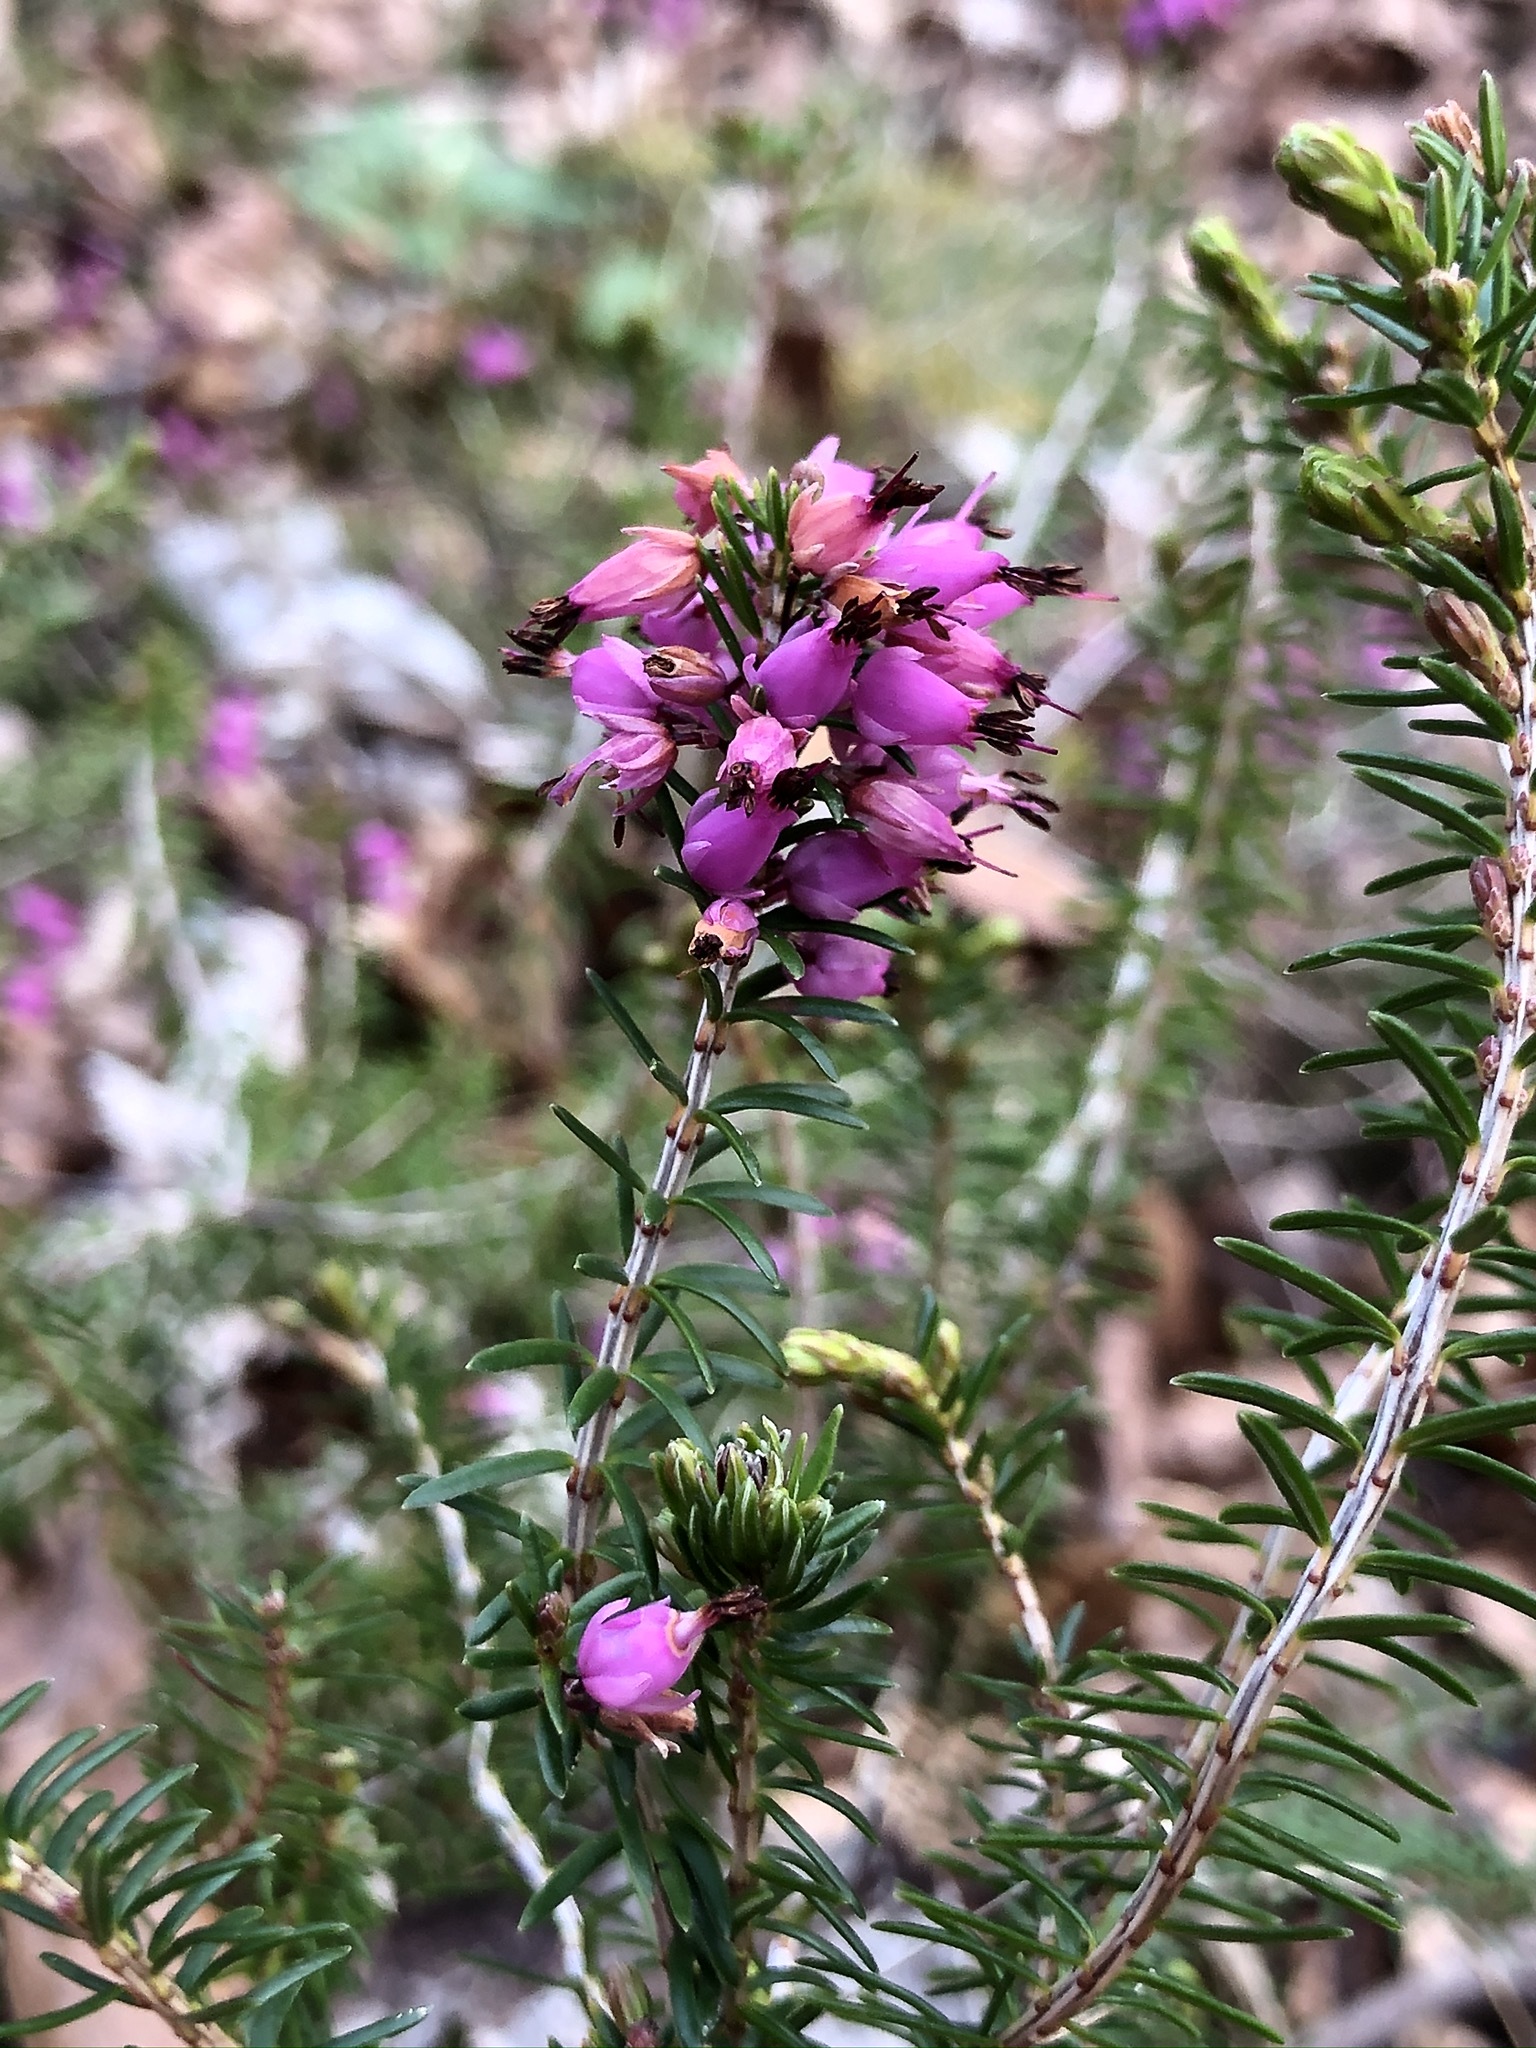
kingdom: Plantae
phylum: Tracheophyta
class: Magnoliopsida
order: Ericales
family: Ericaceae
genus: Erica
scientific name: Erica carnea
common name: Winter heath
